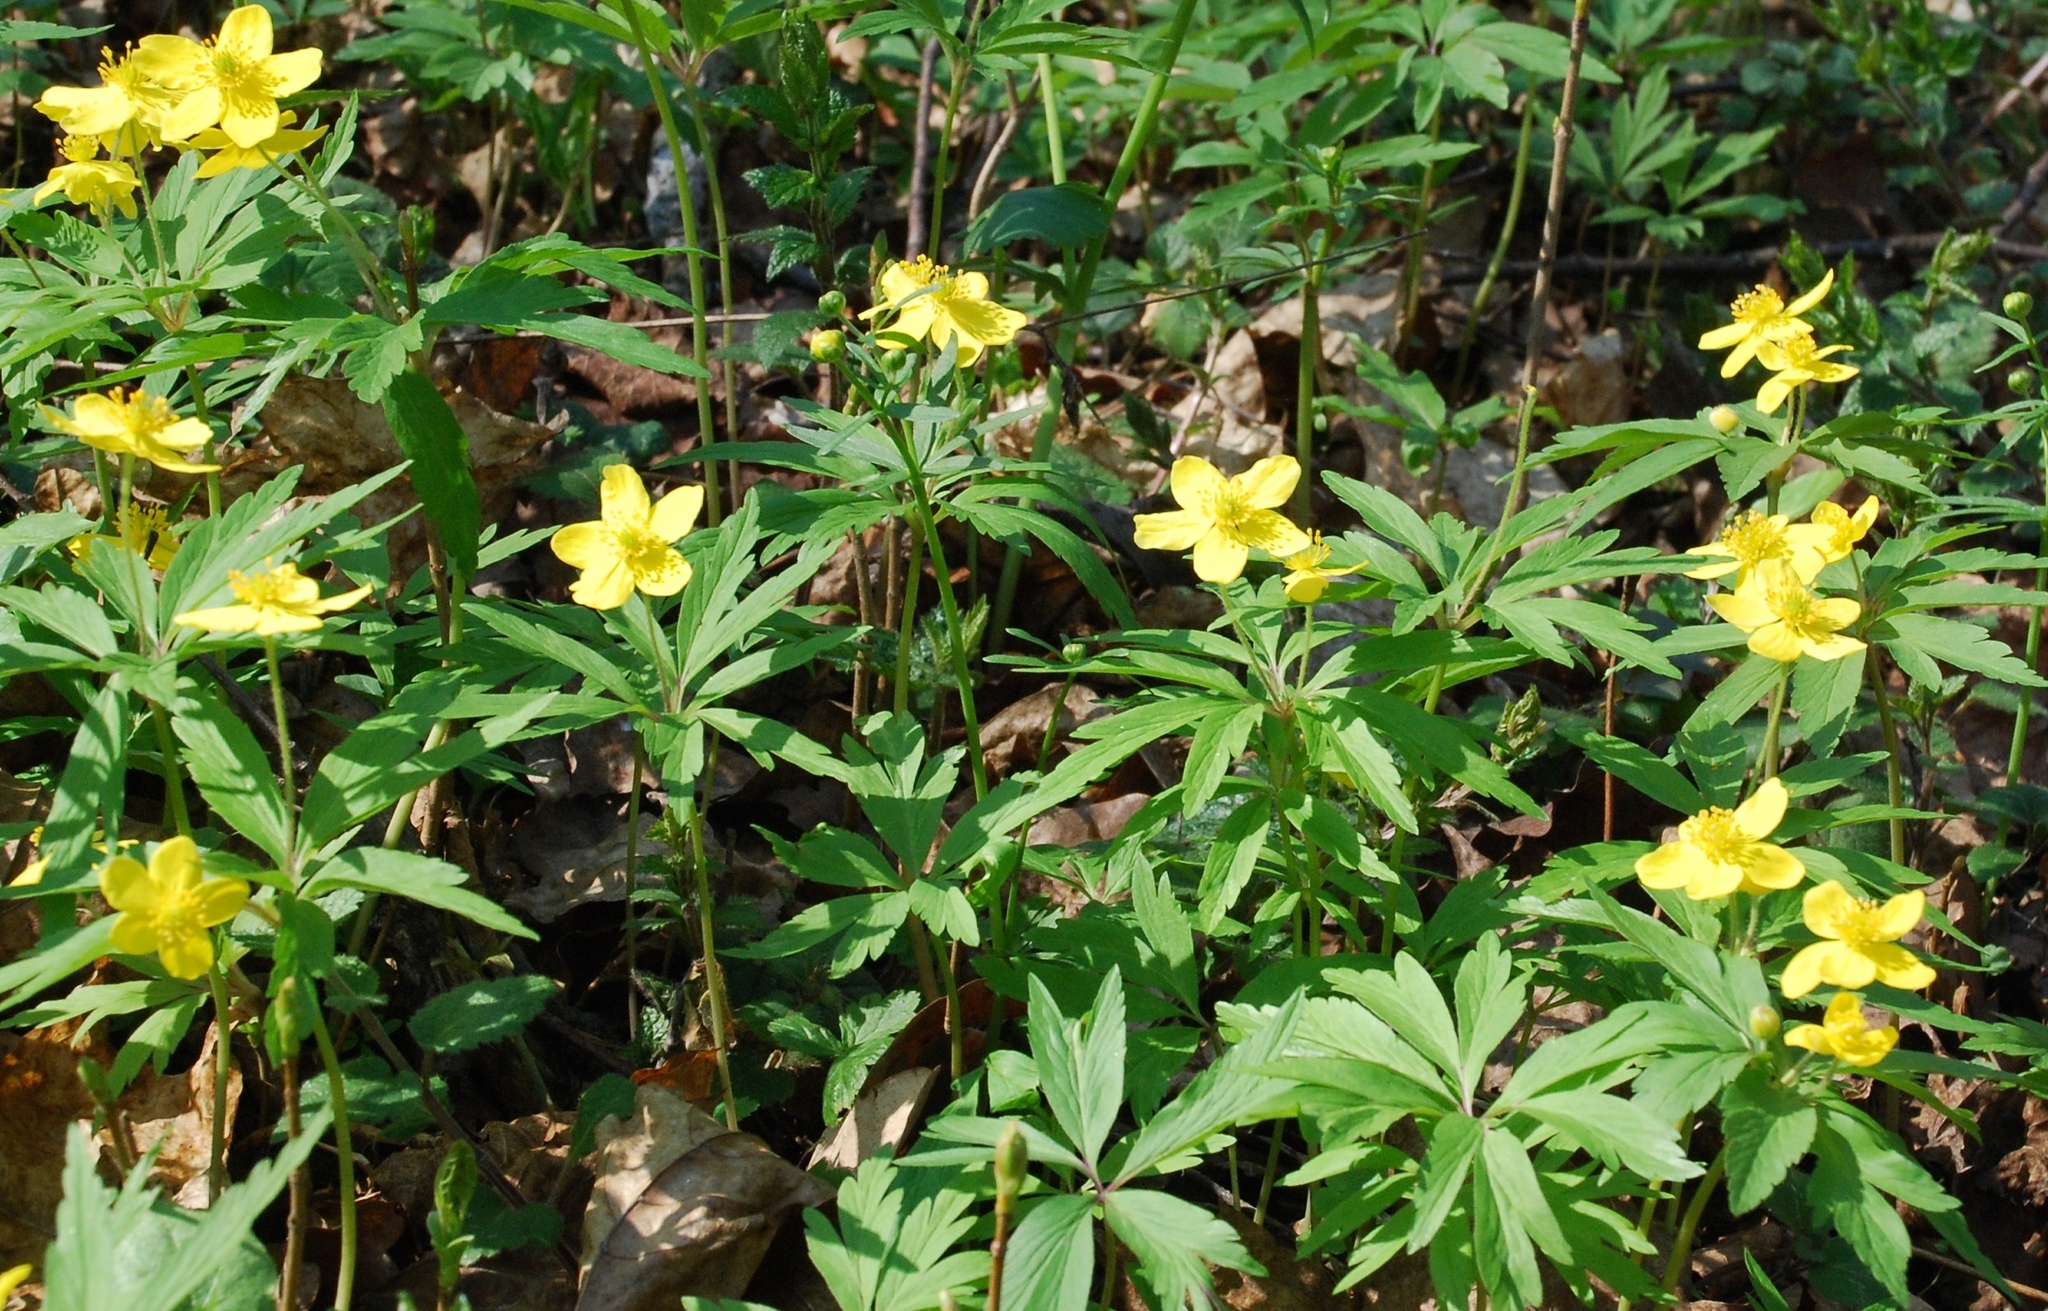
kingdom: Plantae
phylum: Tracheophyta
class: Magnoliopsida
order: Ranunculales
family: Ranunculaceae
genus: Anemone
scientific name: Anemone ranunculoides
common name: Yellow anemone
